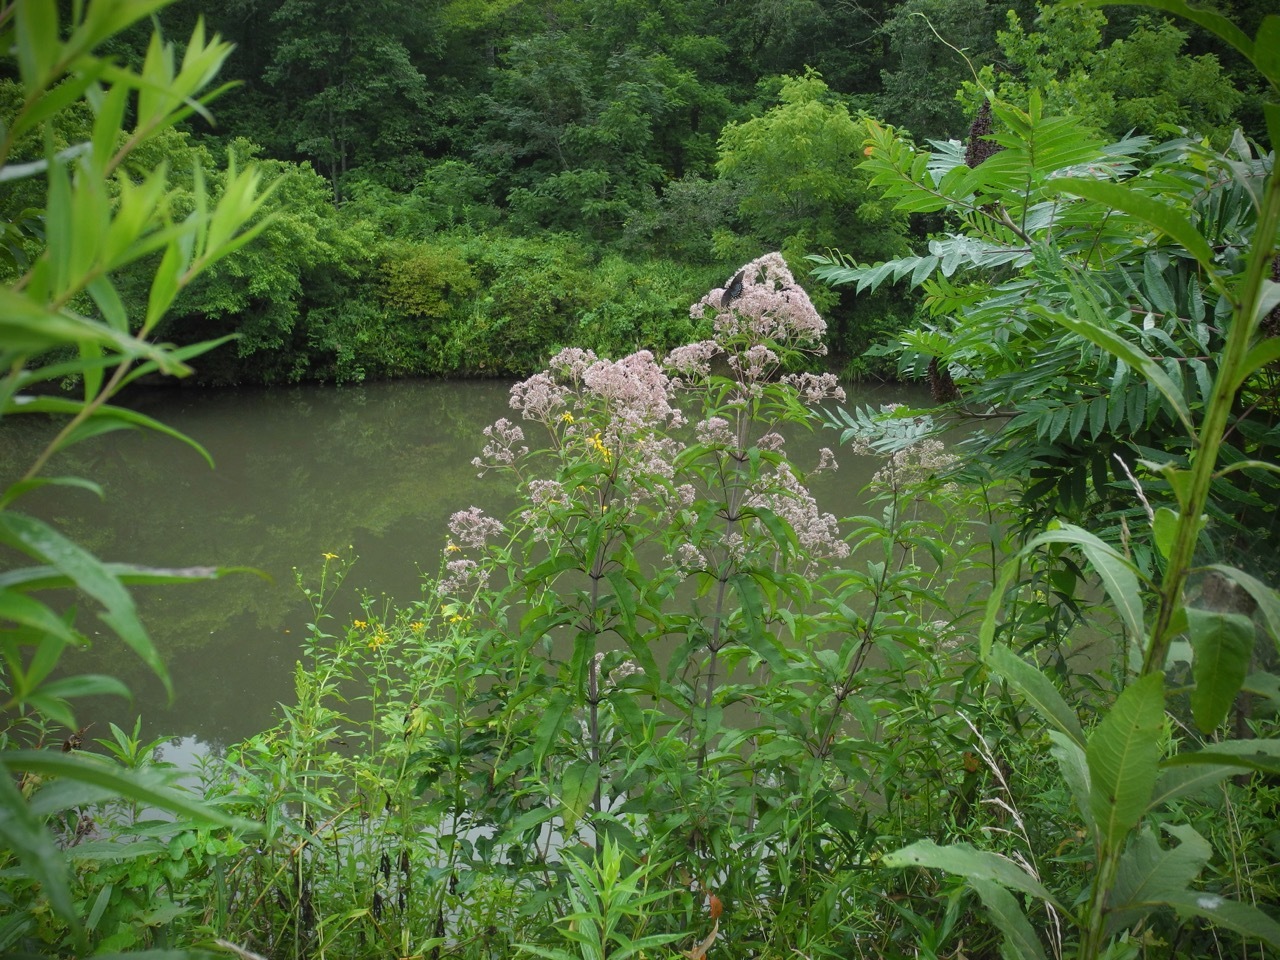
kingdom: Plantae
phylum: Tracheophyta
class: Magnoliopsida
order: Asterales
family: Asteraceae
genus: Eutrochium
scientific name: Eutrochium fistulosum
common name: Trumpetweed
